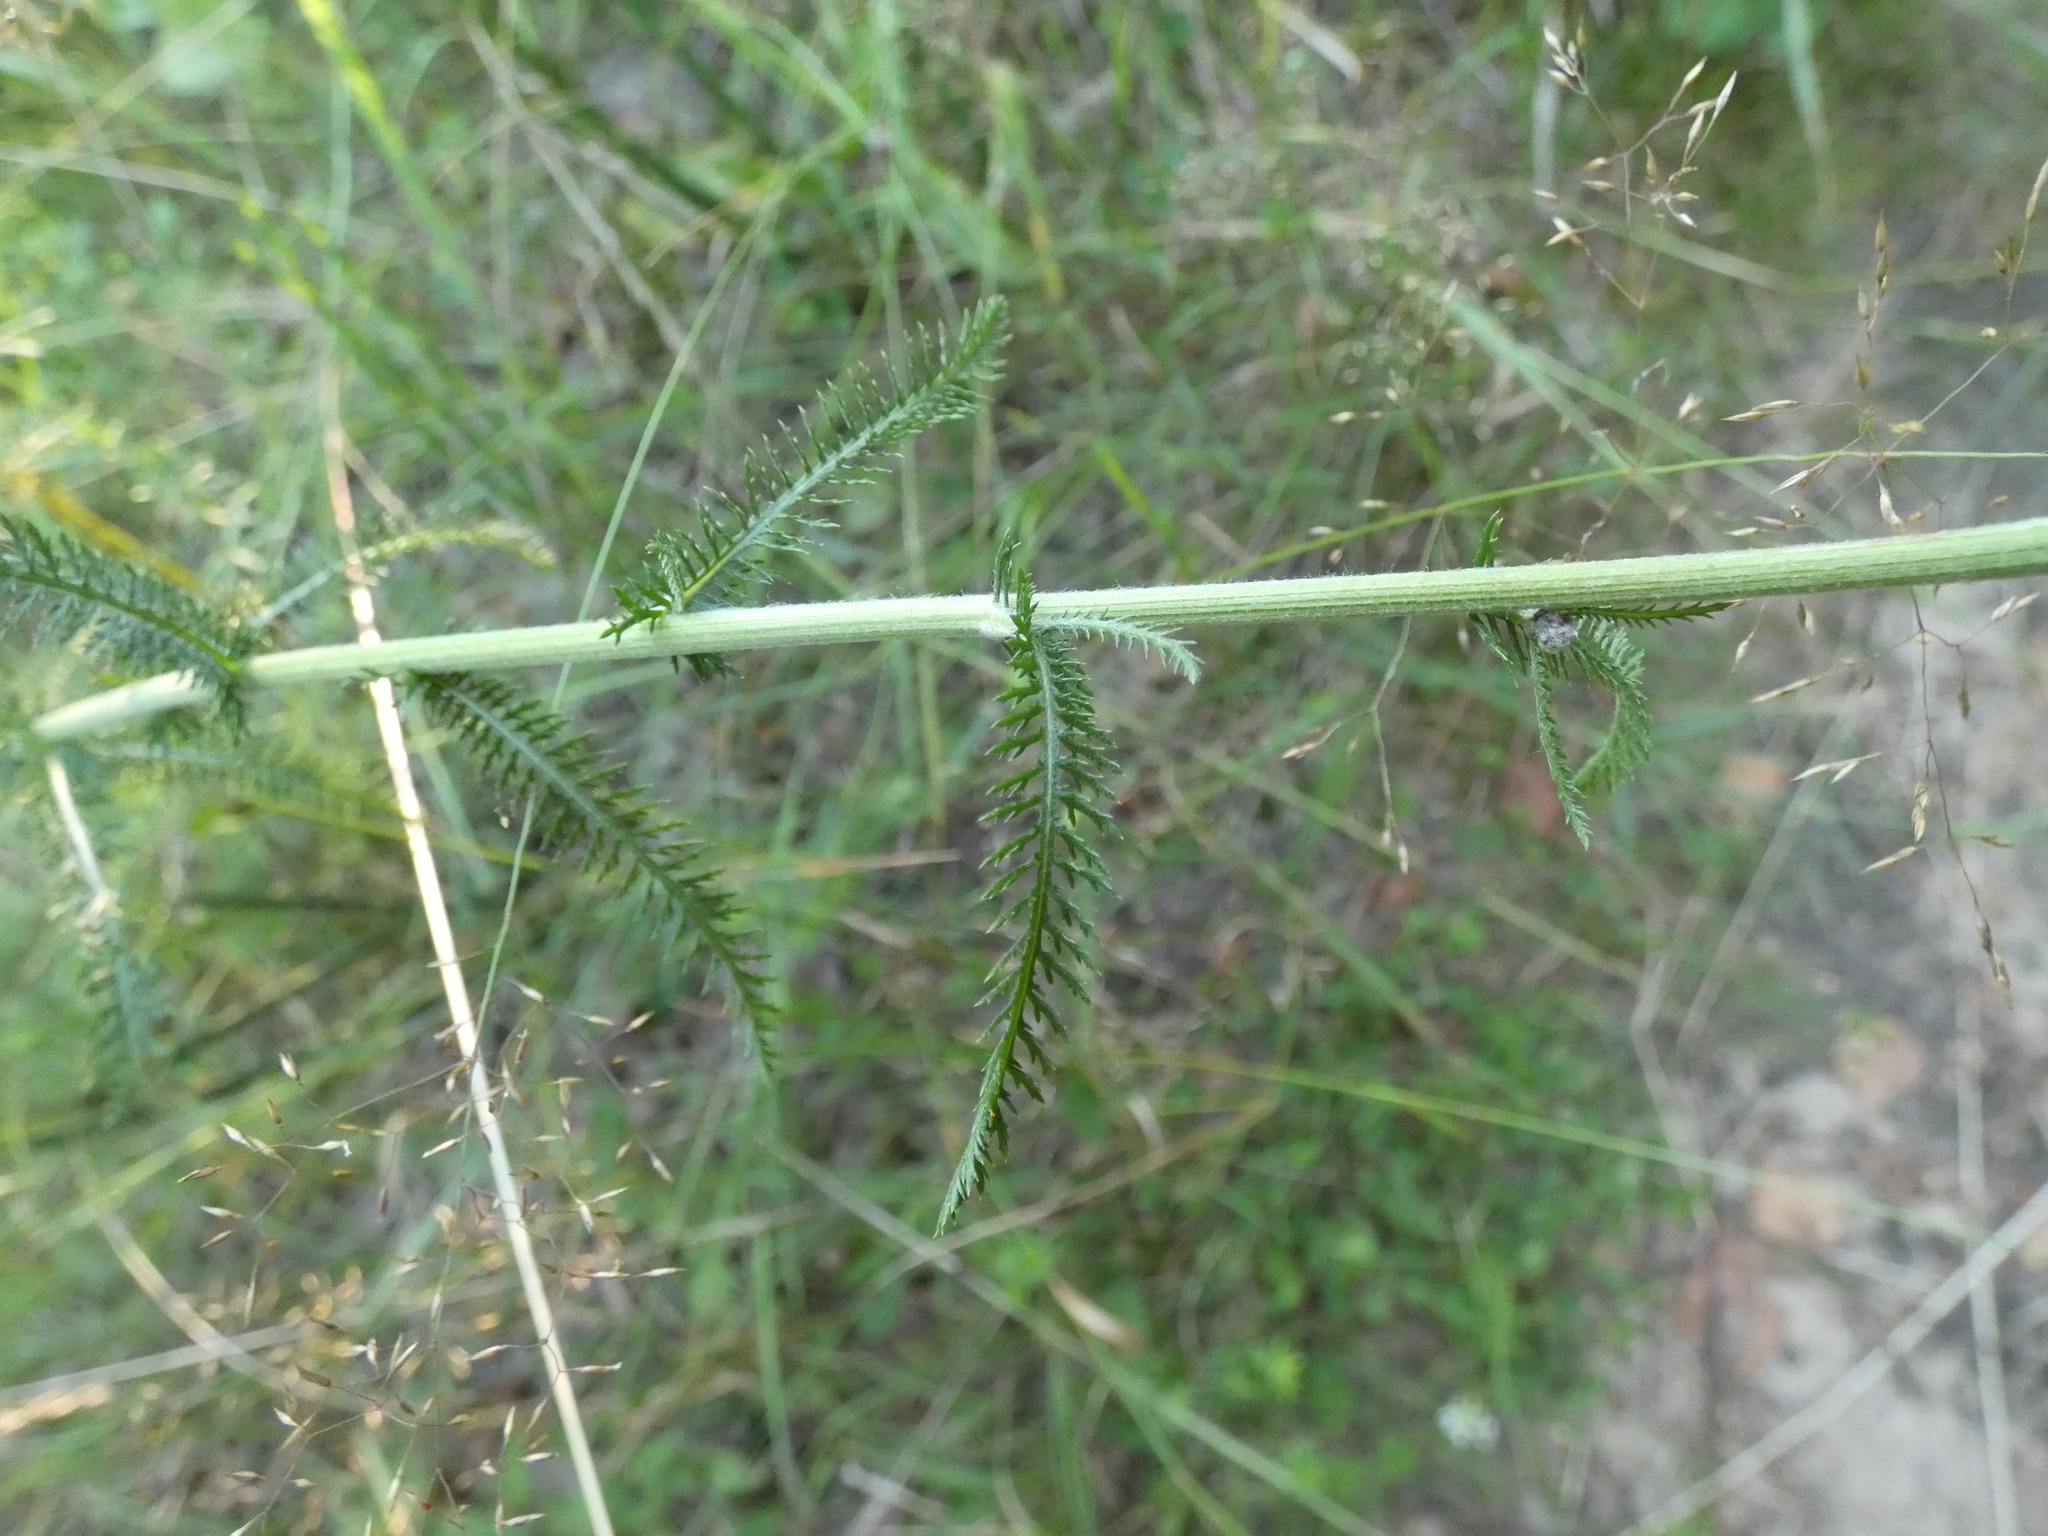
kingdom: Plantae
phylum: Tracheophyta
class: Magnoliopsida
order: Asterales
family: Asteraceae
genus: Achillea
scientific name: Achillea millefolium
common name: Yarrow
